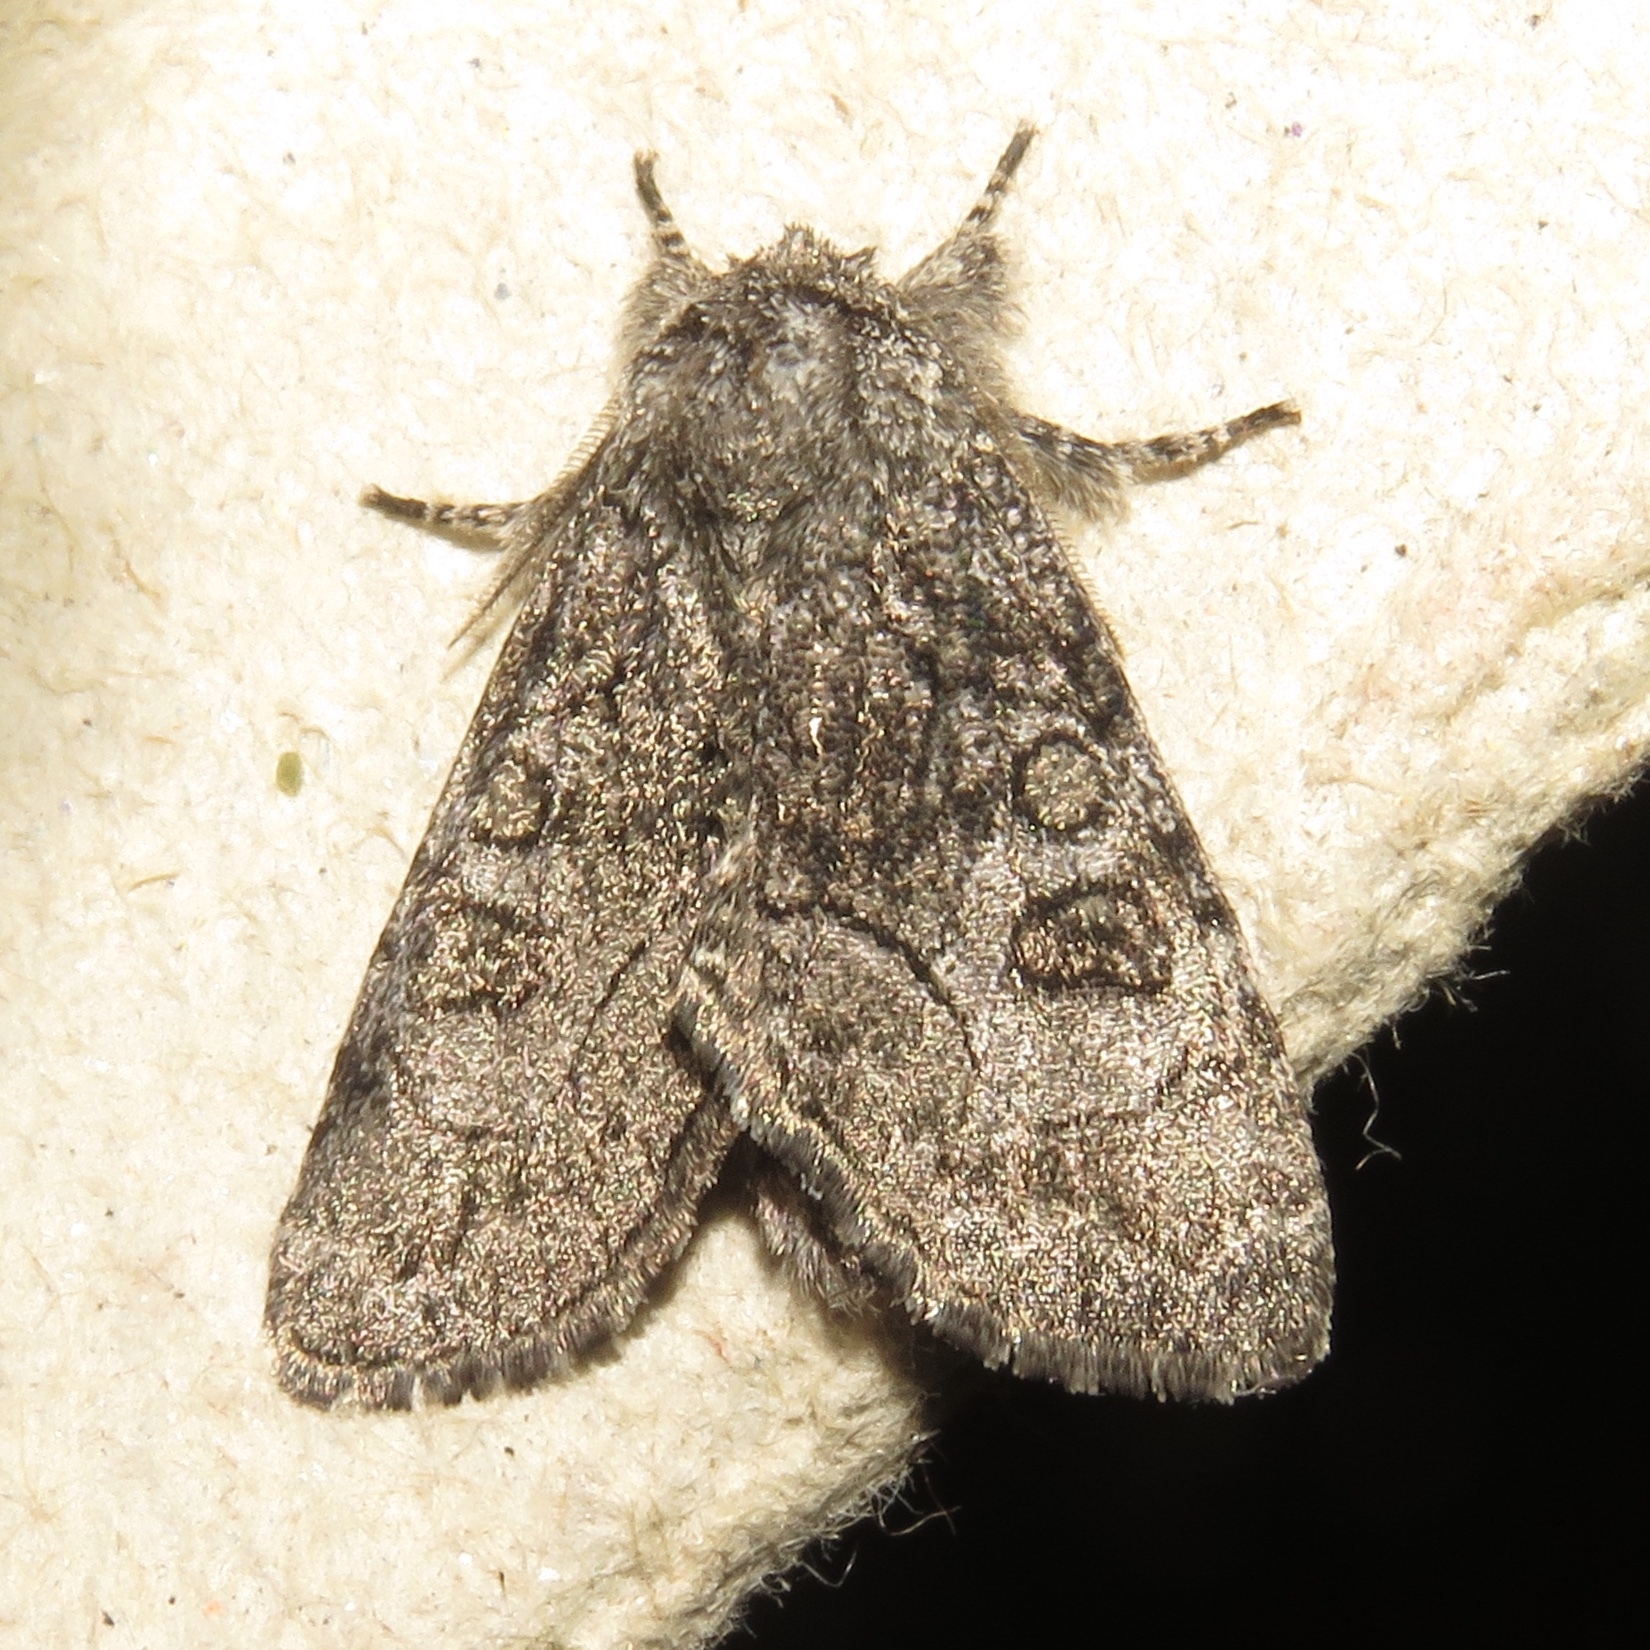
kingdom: Animalia
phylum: Arthropoda
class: Insecta
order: Lepidoptera
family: Noctuidae
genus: Raphia
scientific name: Raphia frater
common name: Brother
